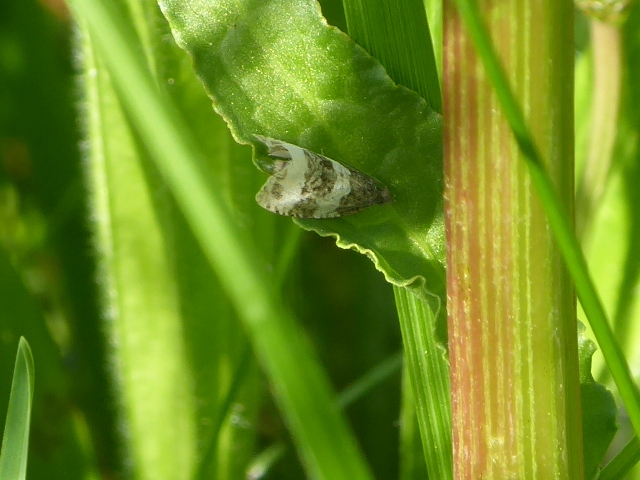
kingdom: Animalia
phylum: Arthropoda
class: Insecta
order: Lepidoptera
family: Tortricidae
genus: Olethreutes
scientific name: Olethreutes bipartitana
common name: Divided olethreutes moth
